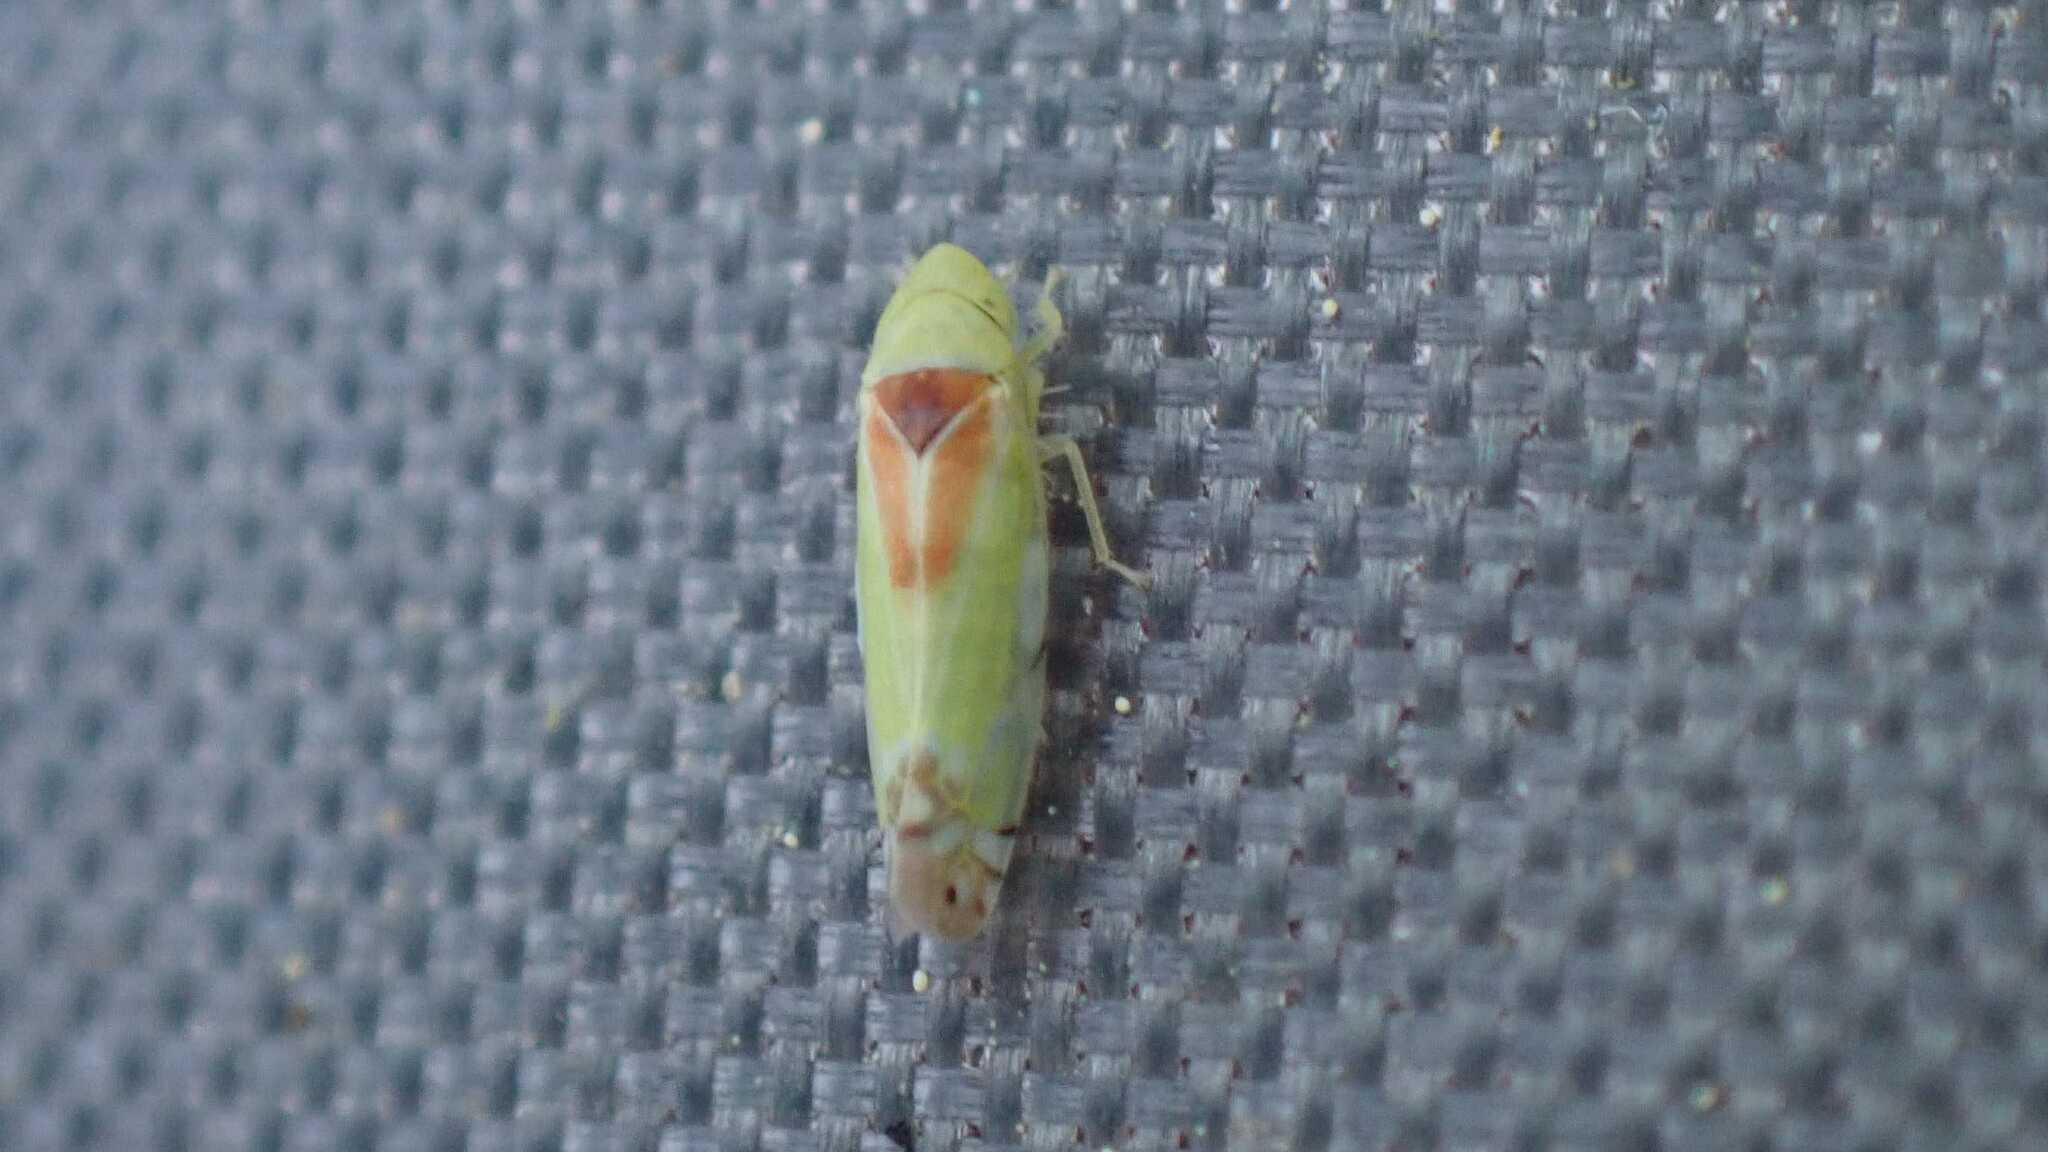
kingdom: Animalia
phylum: Arthropoda
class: Insecta
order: Hemiptera
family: Cicadellidae
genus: Zyginella
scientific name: Zyginella pulchra
